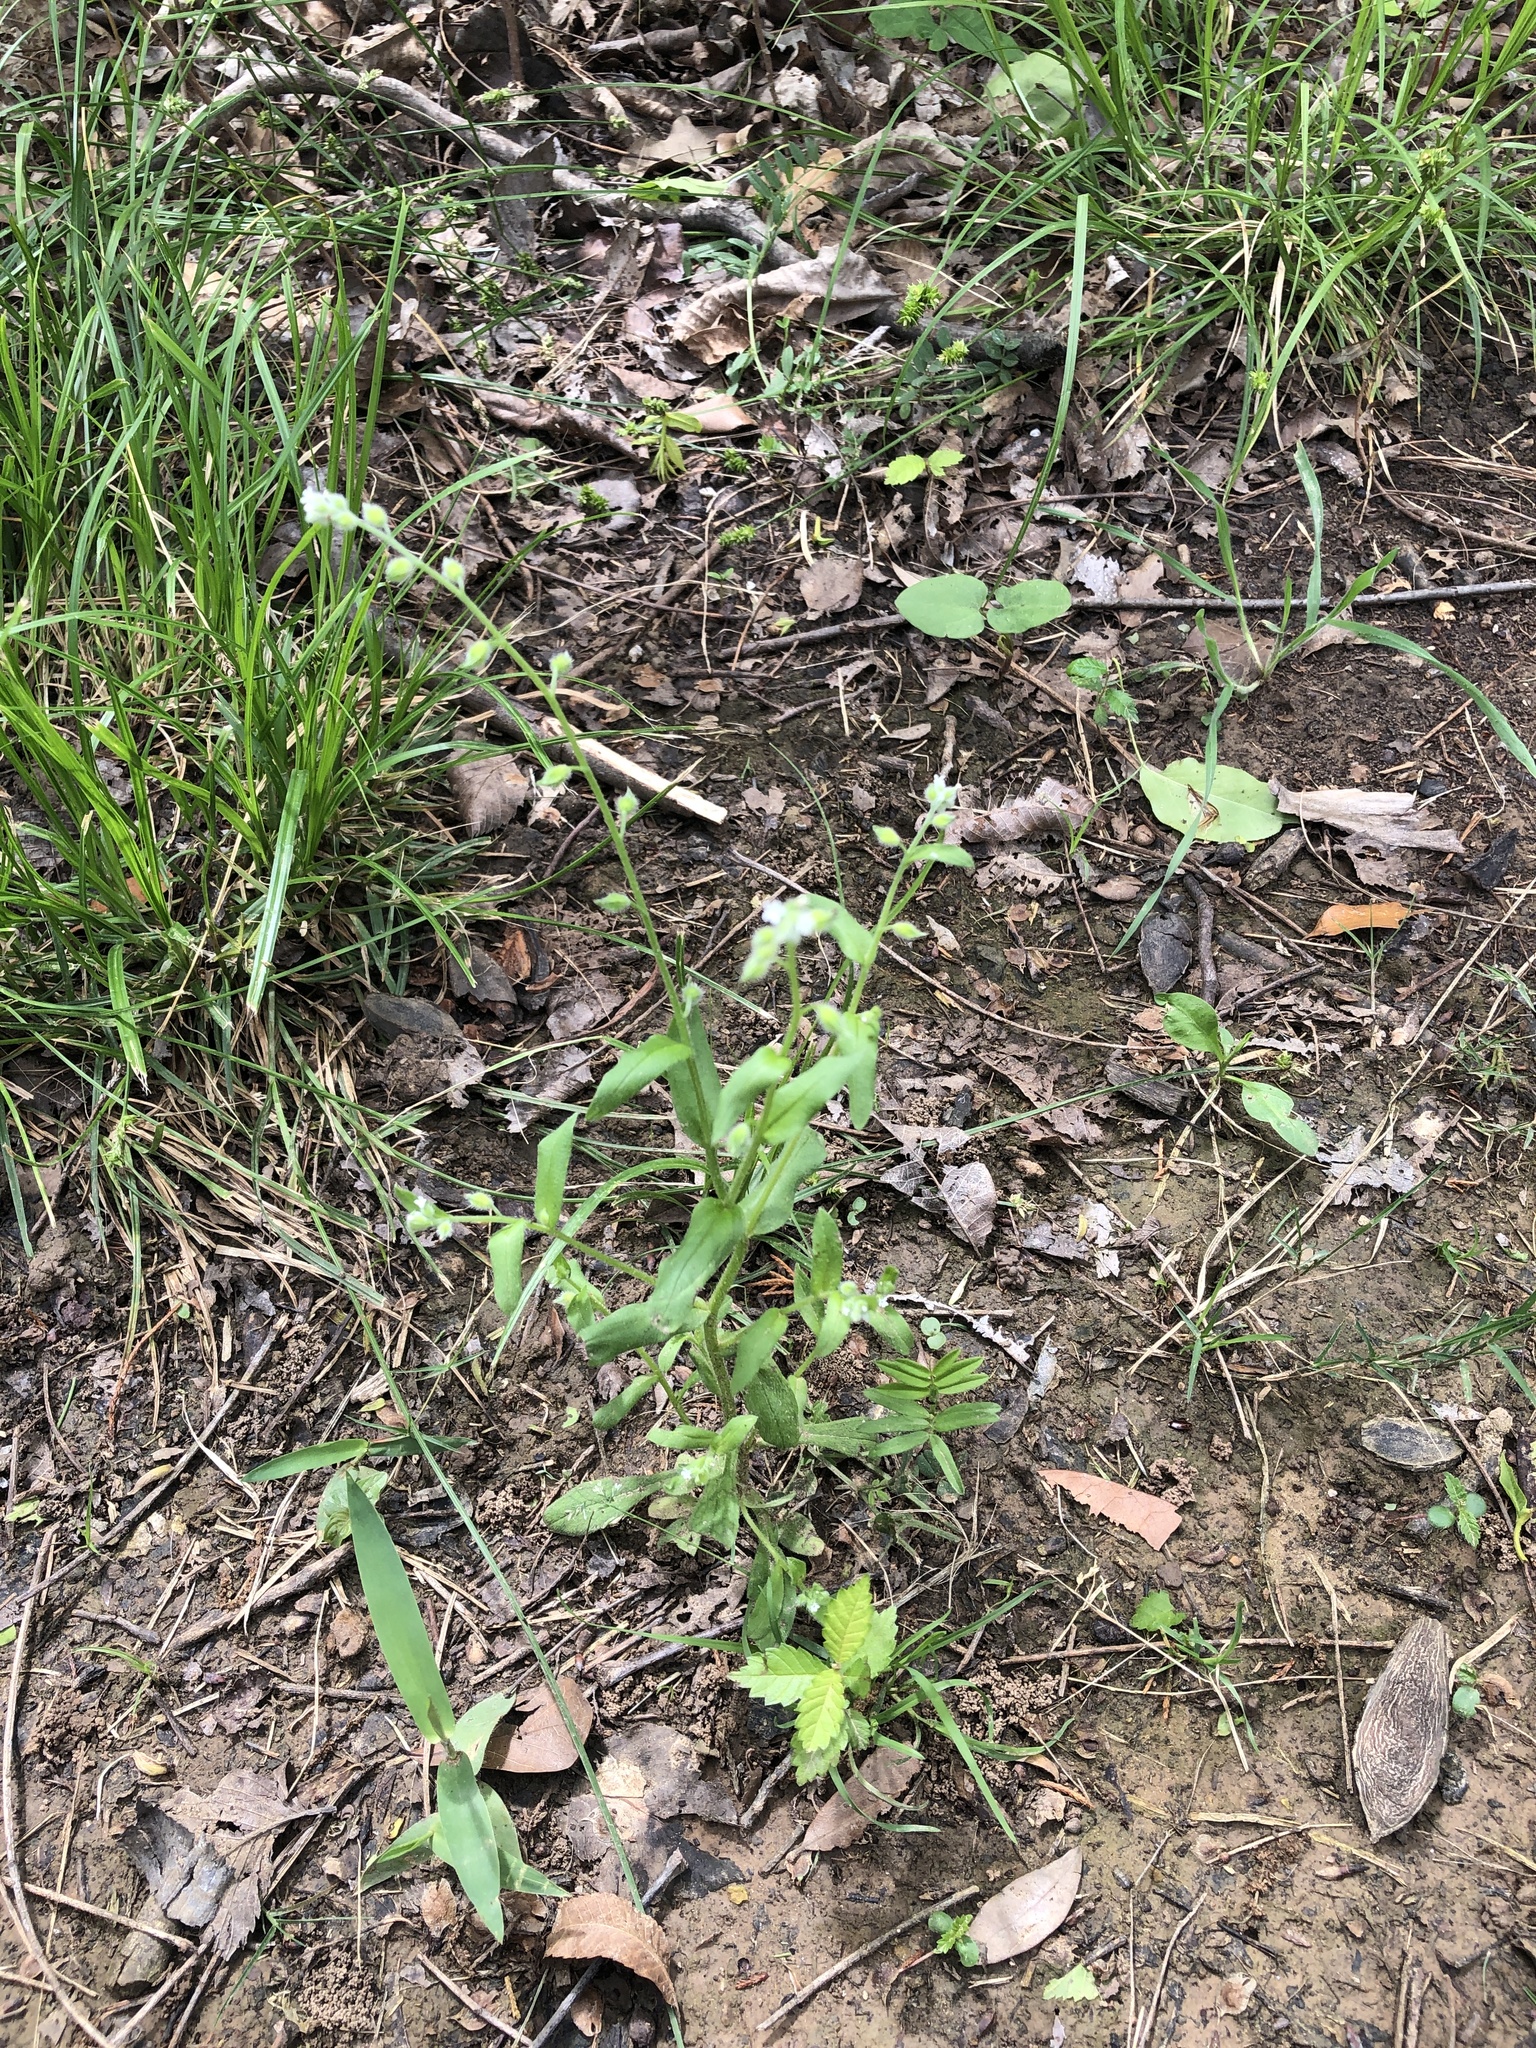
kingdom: Plantae
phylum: Tracheophyta
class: Magnoliopsida
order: Boraginales
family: Boraginaceae
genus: Myosotis
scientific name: Myosotis macrosperma
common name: Large-seed forget-me-not
